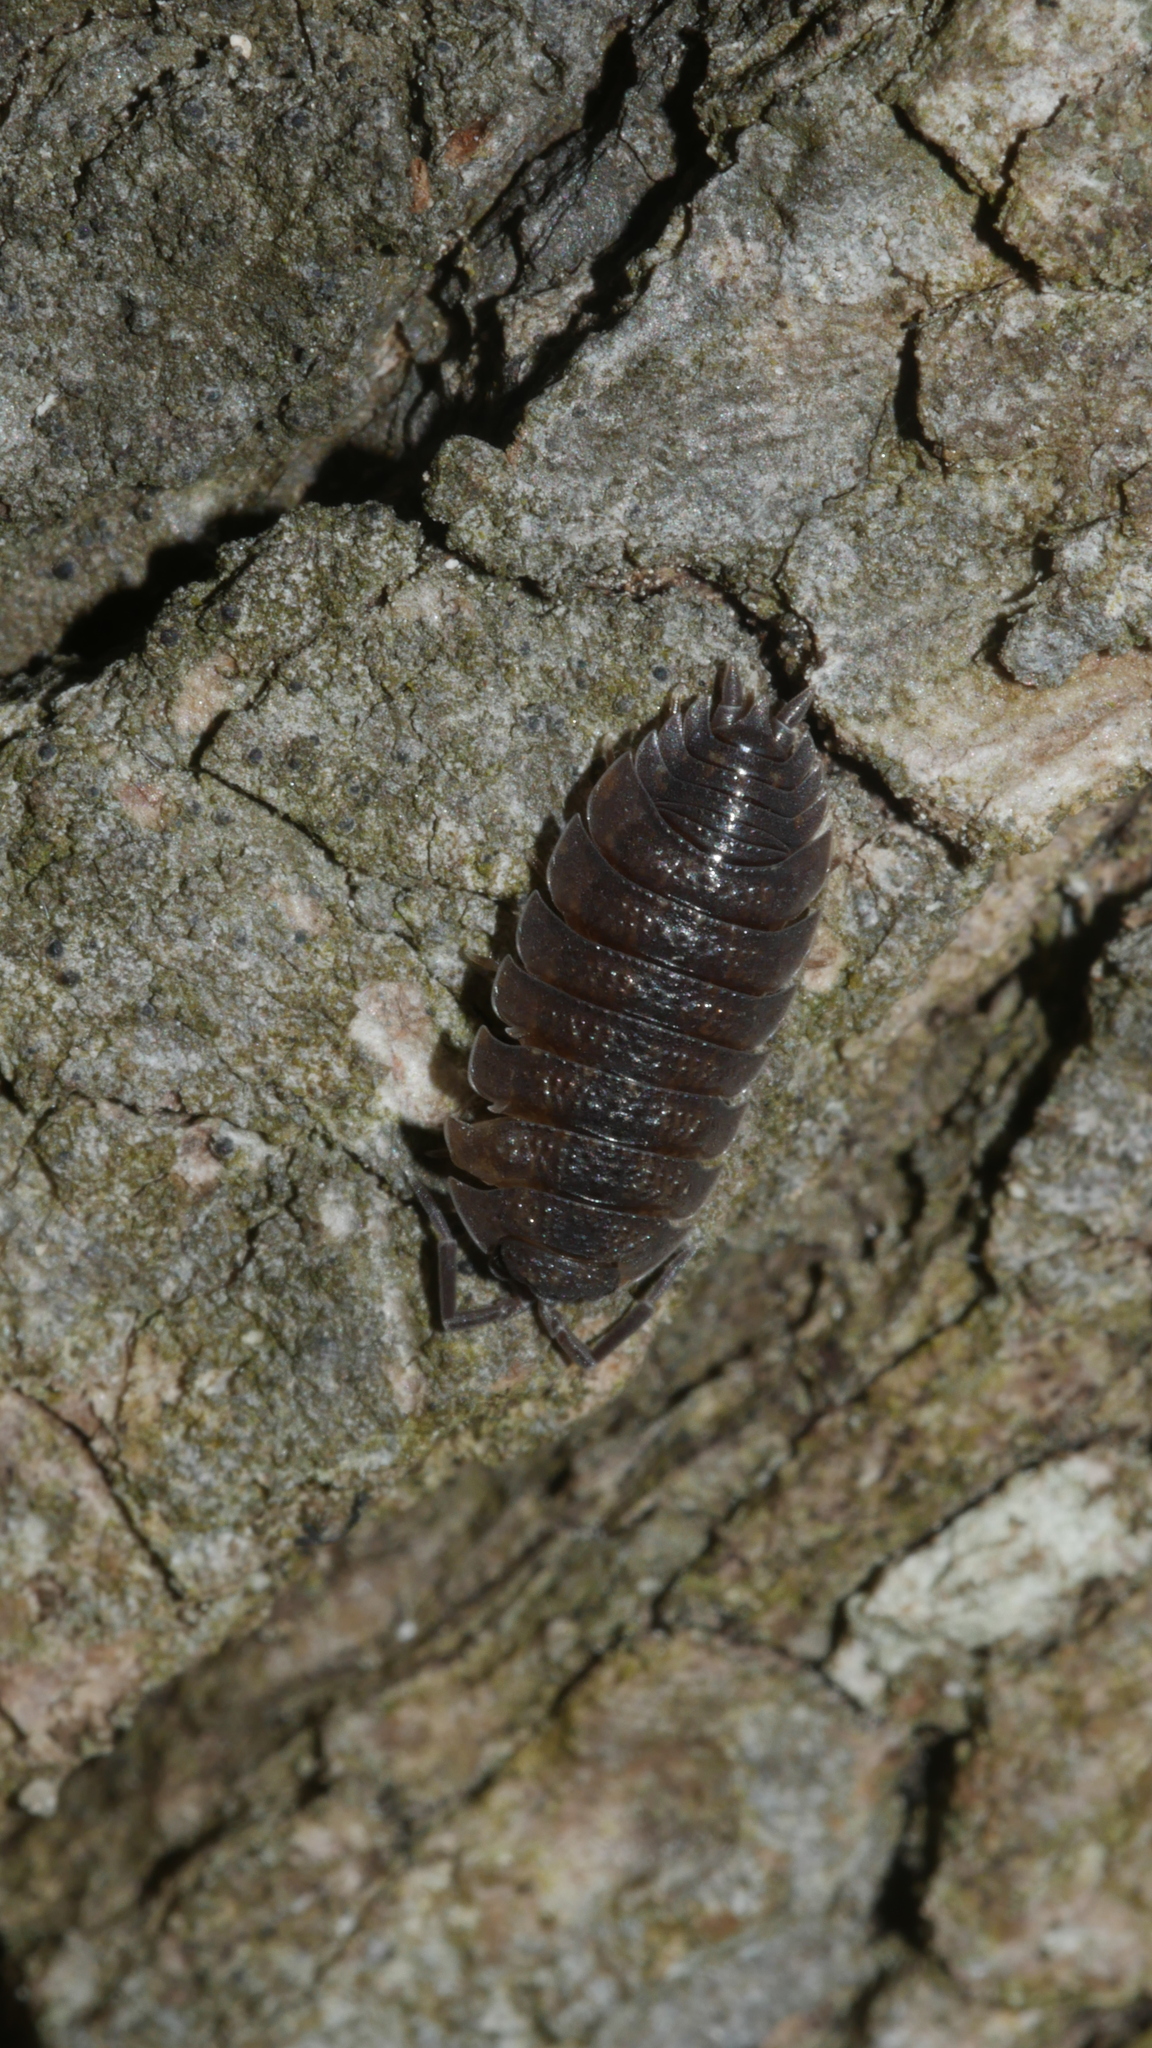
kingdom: Animalia
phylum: Arthropoda
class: Malacostraca
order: Isopoda
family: Porcellionidae
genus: Porcellio
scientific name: Porcellio scaber
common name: Common rough woodlouse
